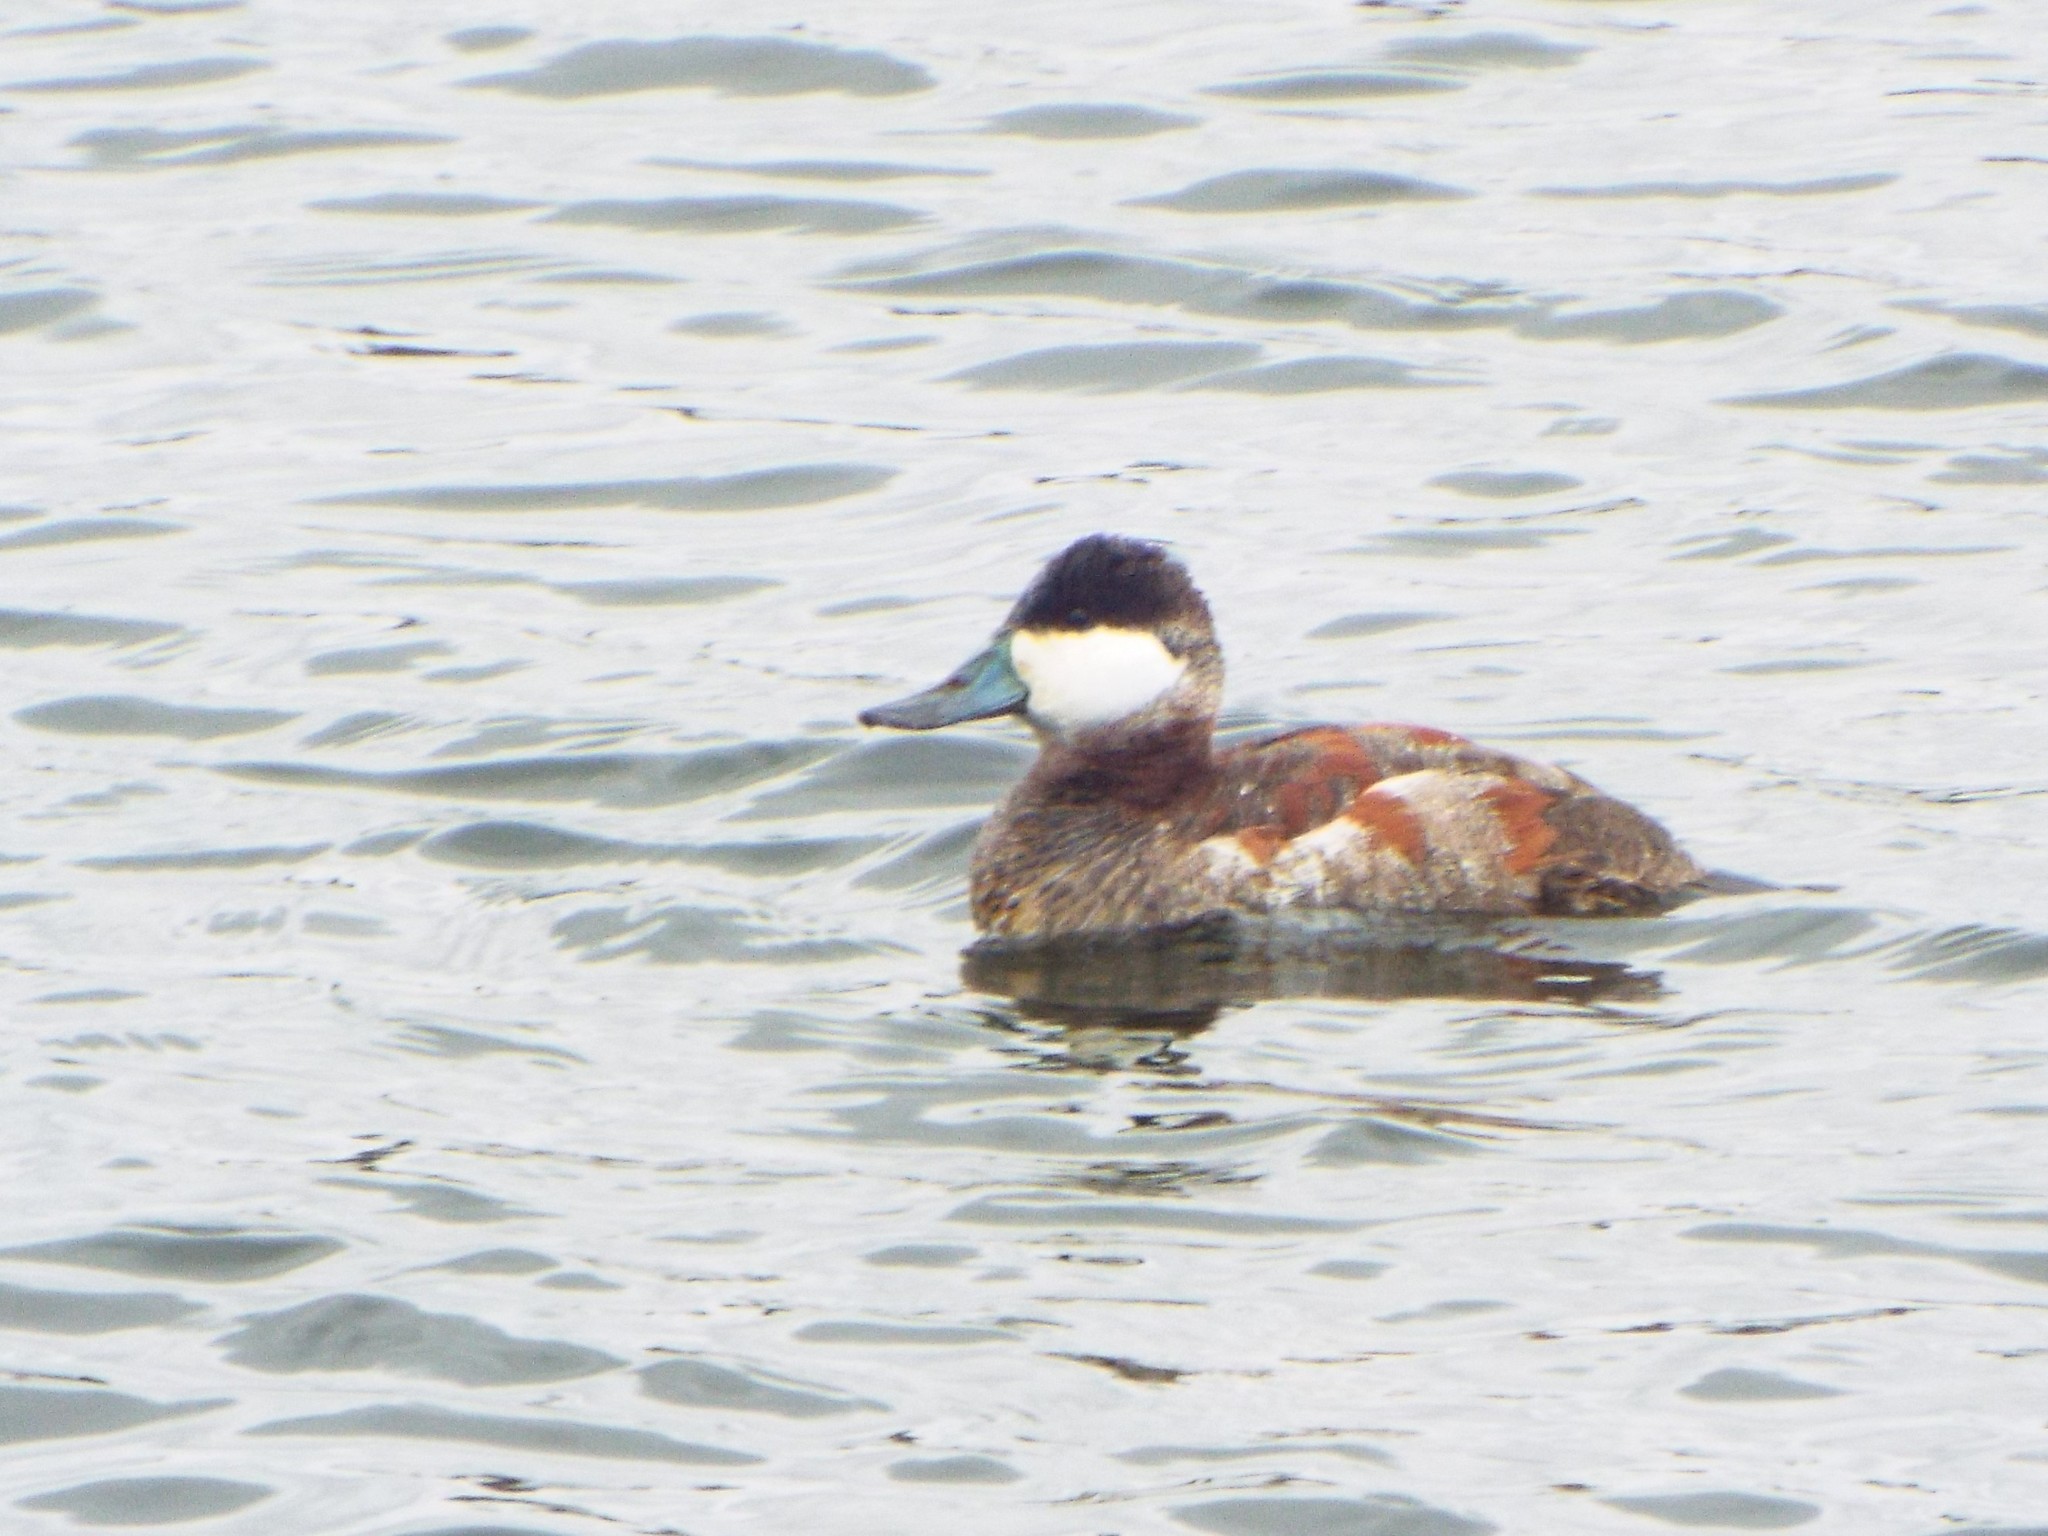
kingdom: Animalia
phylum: Chordata
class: Aves
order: Anseriformes
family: Anatidae
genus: Oxyura
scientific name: Oxyura jamaicensis
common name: Ruddy duck
